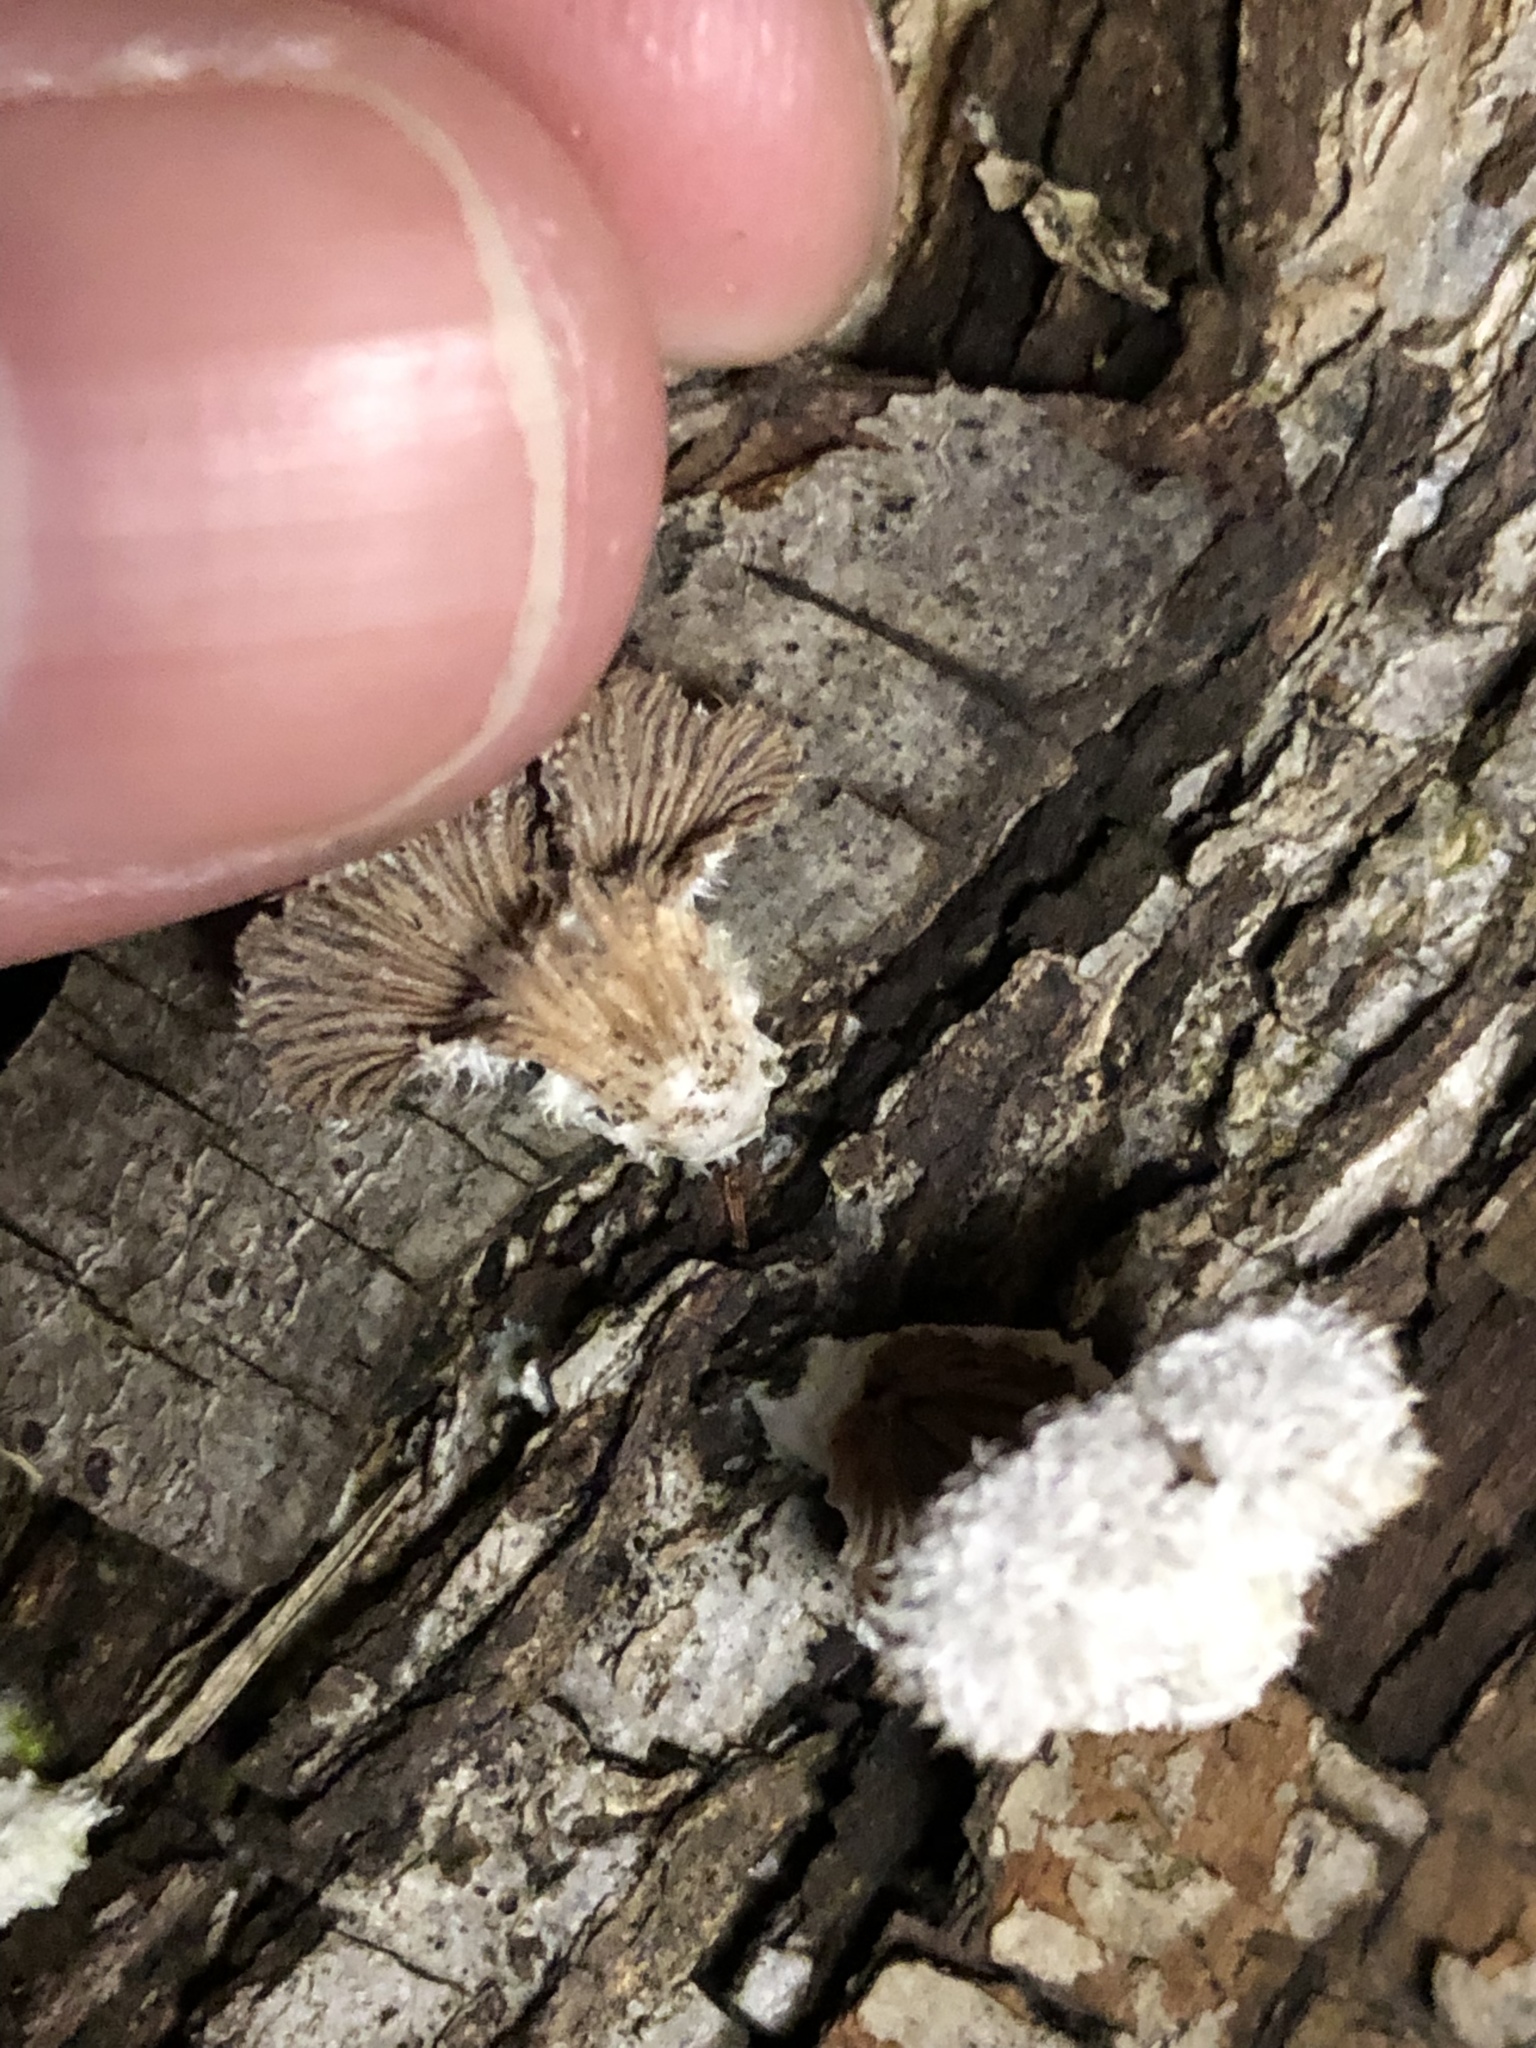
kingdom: Fungi
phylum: Basidiomycota
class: Agaricomycetes
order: Agaricales
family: Schizophyllaceae
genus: Schizophyllum
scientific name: Schizophyllum commune
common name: Common porecrust
